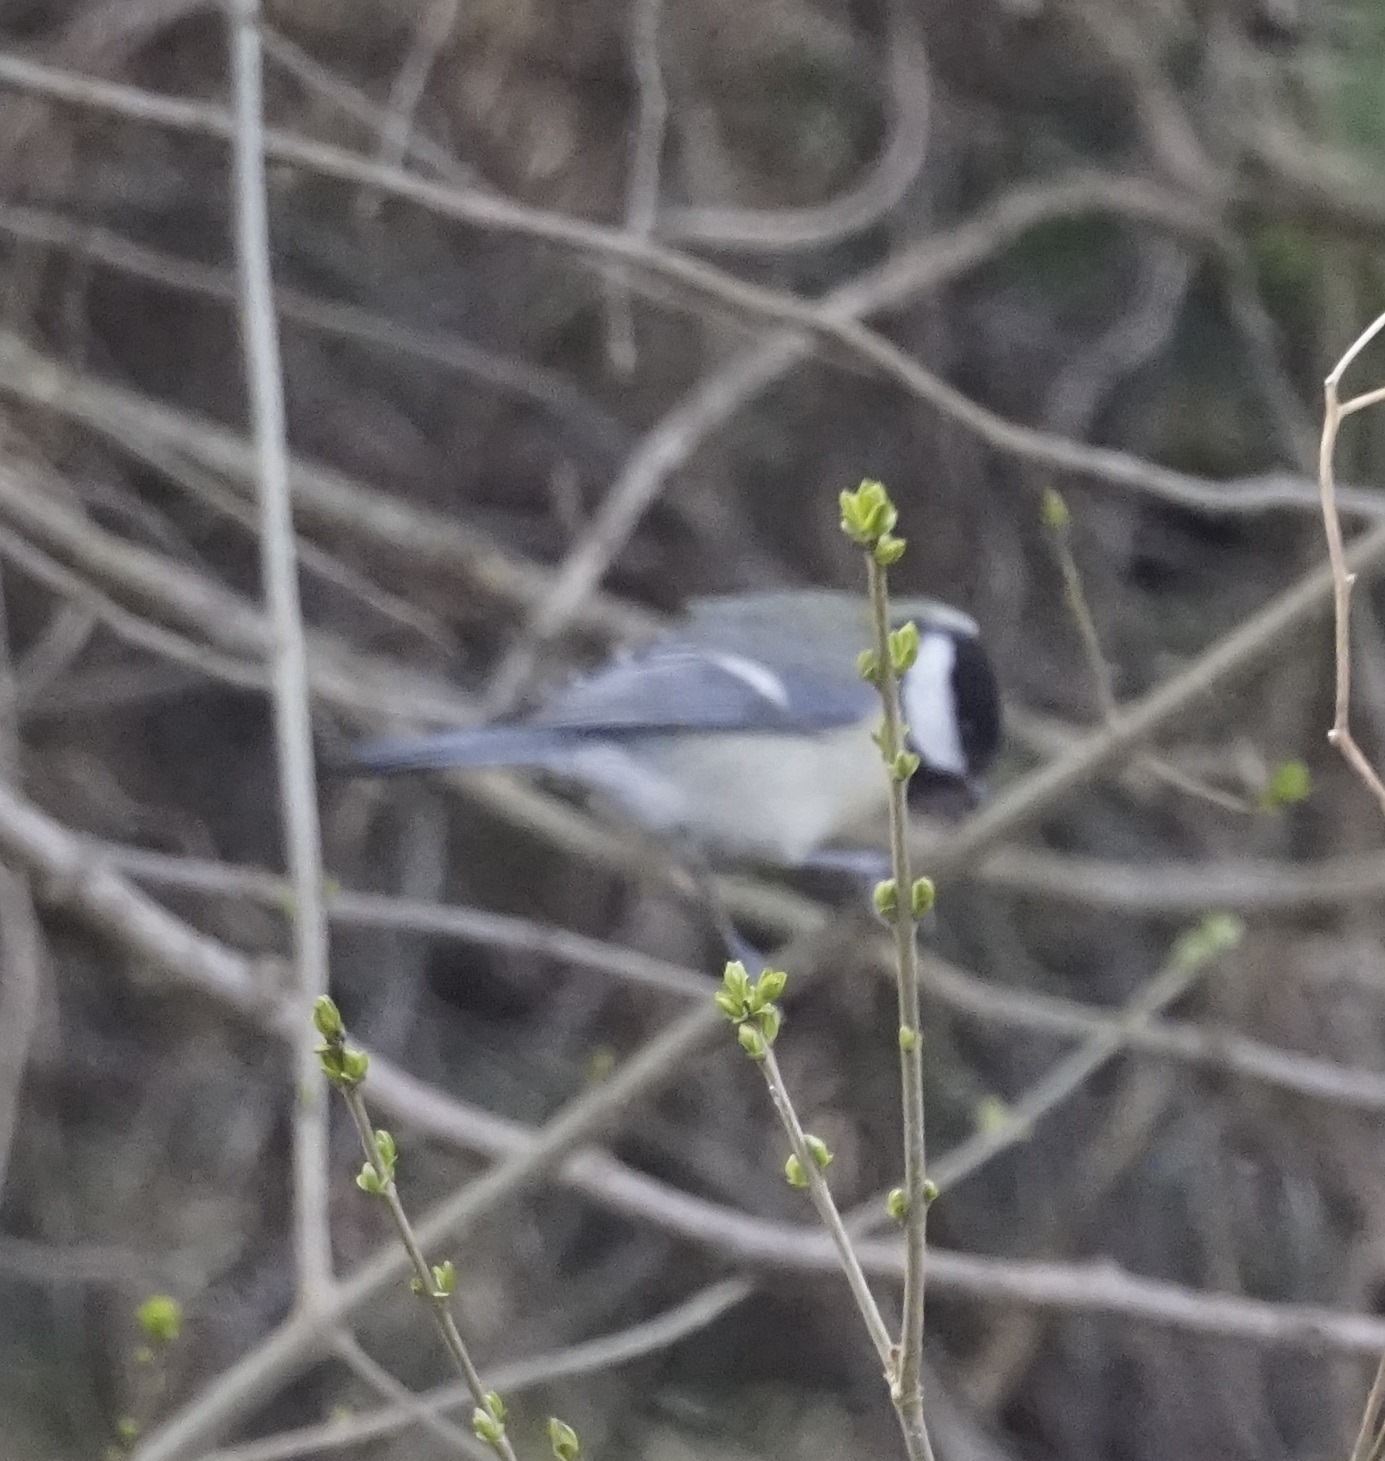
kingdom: Animalia
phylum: Chordata
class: Aves
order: Passeriformes
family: Paridae
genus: Parus
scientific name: Parus major
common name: Great tit
